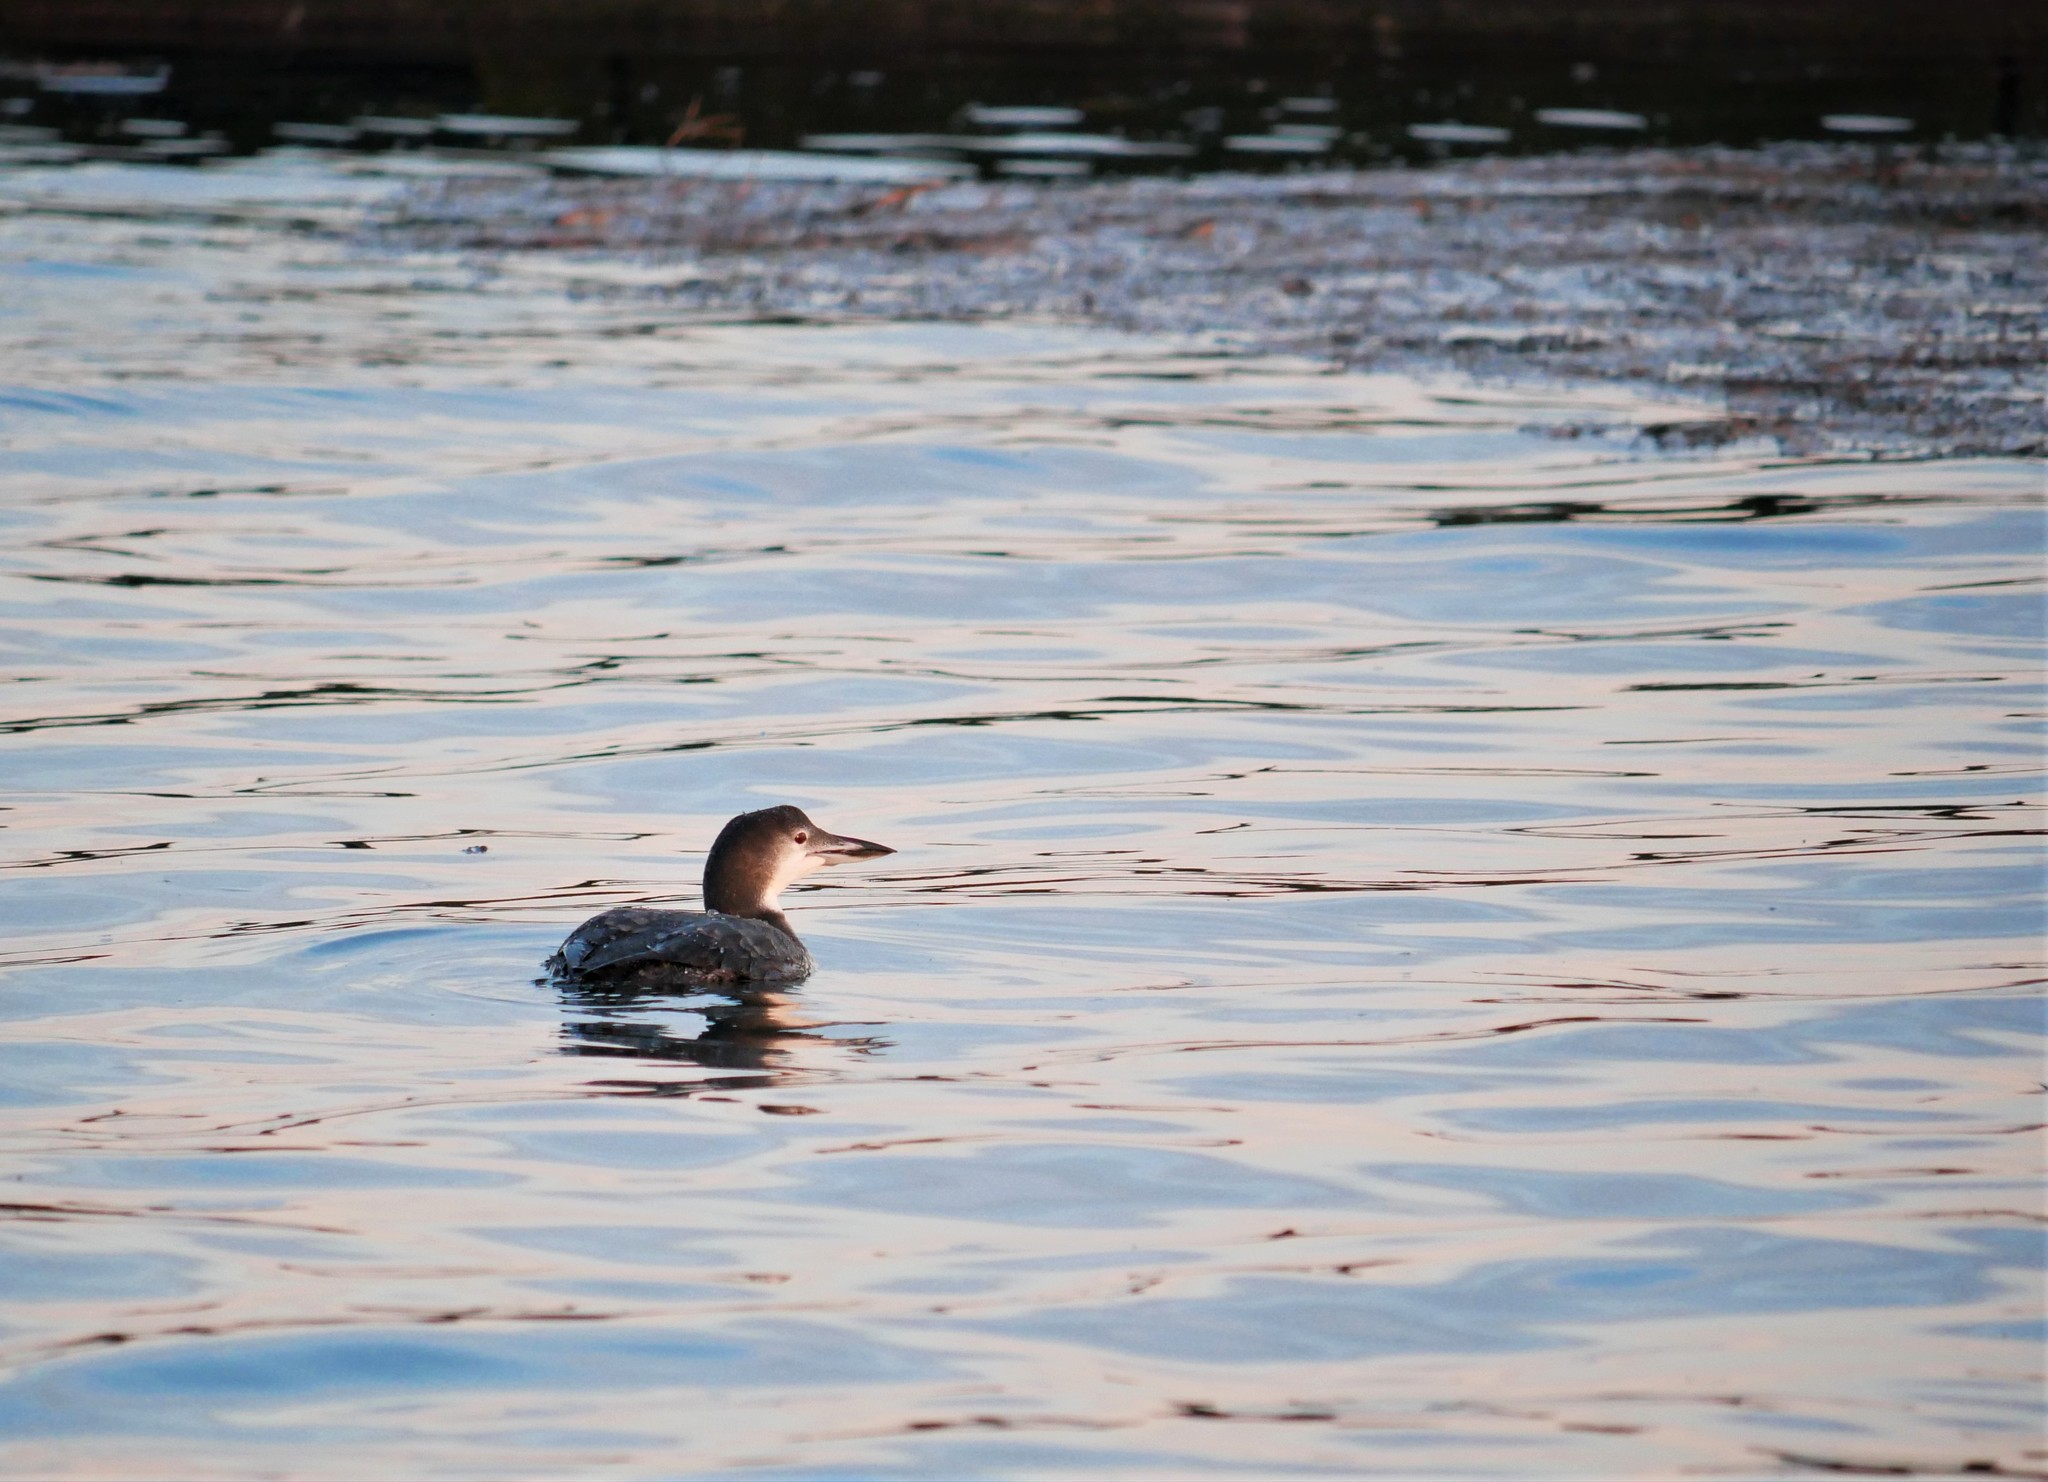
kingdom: Animalia
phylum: Chordata
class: Aves
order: Gaviiformes
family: Gaviidae
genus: Gavia
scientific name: Gavia immer
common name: Common loon
